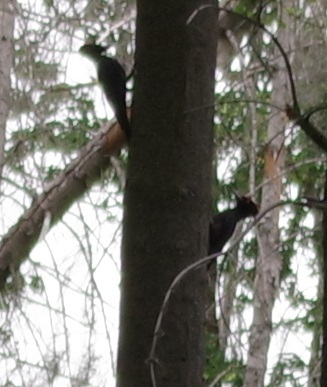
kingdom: Animalia
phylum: Chordata
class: Aves
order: Piciformes
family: Picidae
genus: Dryocopus
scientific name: Dryocopus martius
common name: Black woodpecker
